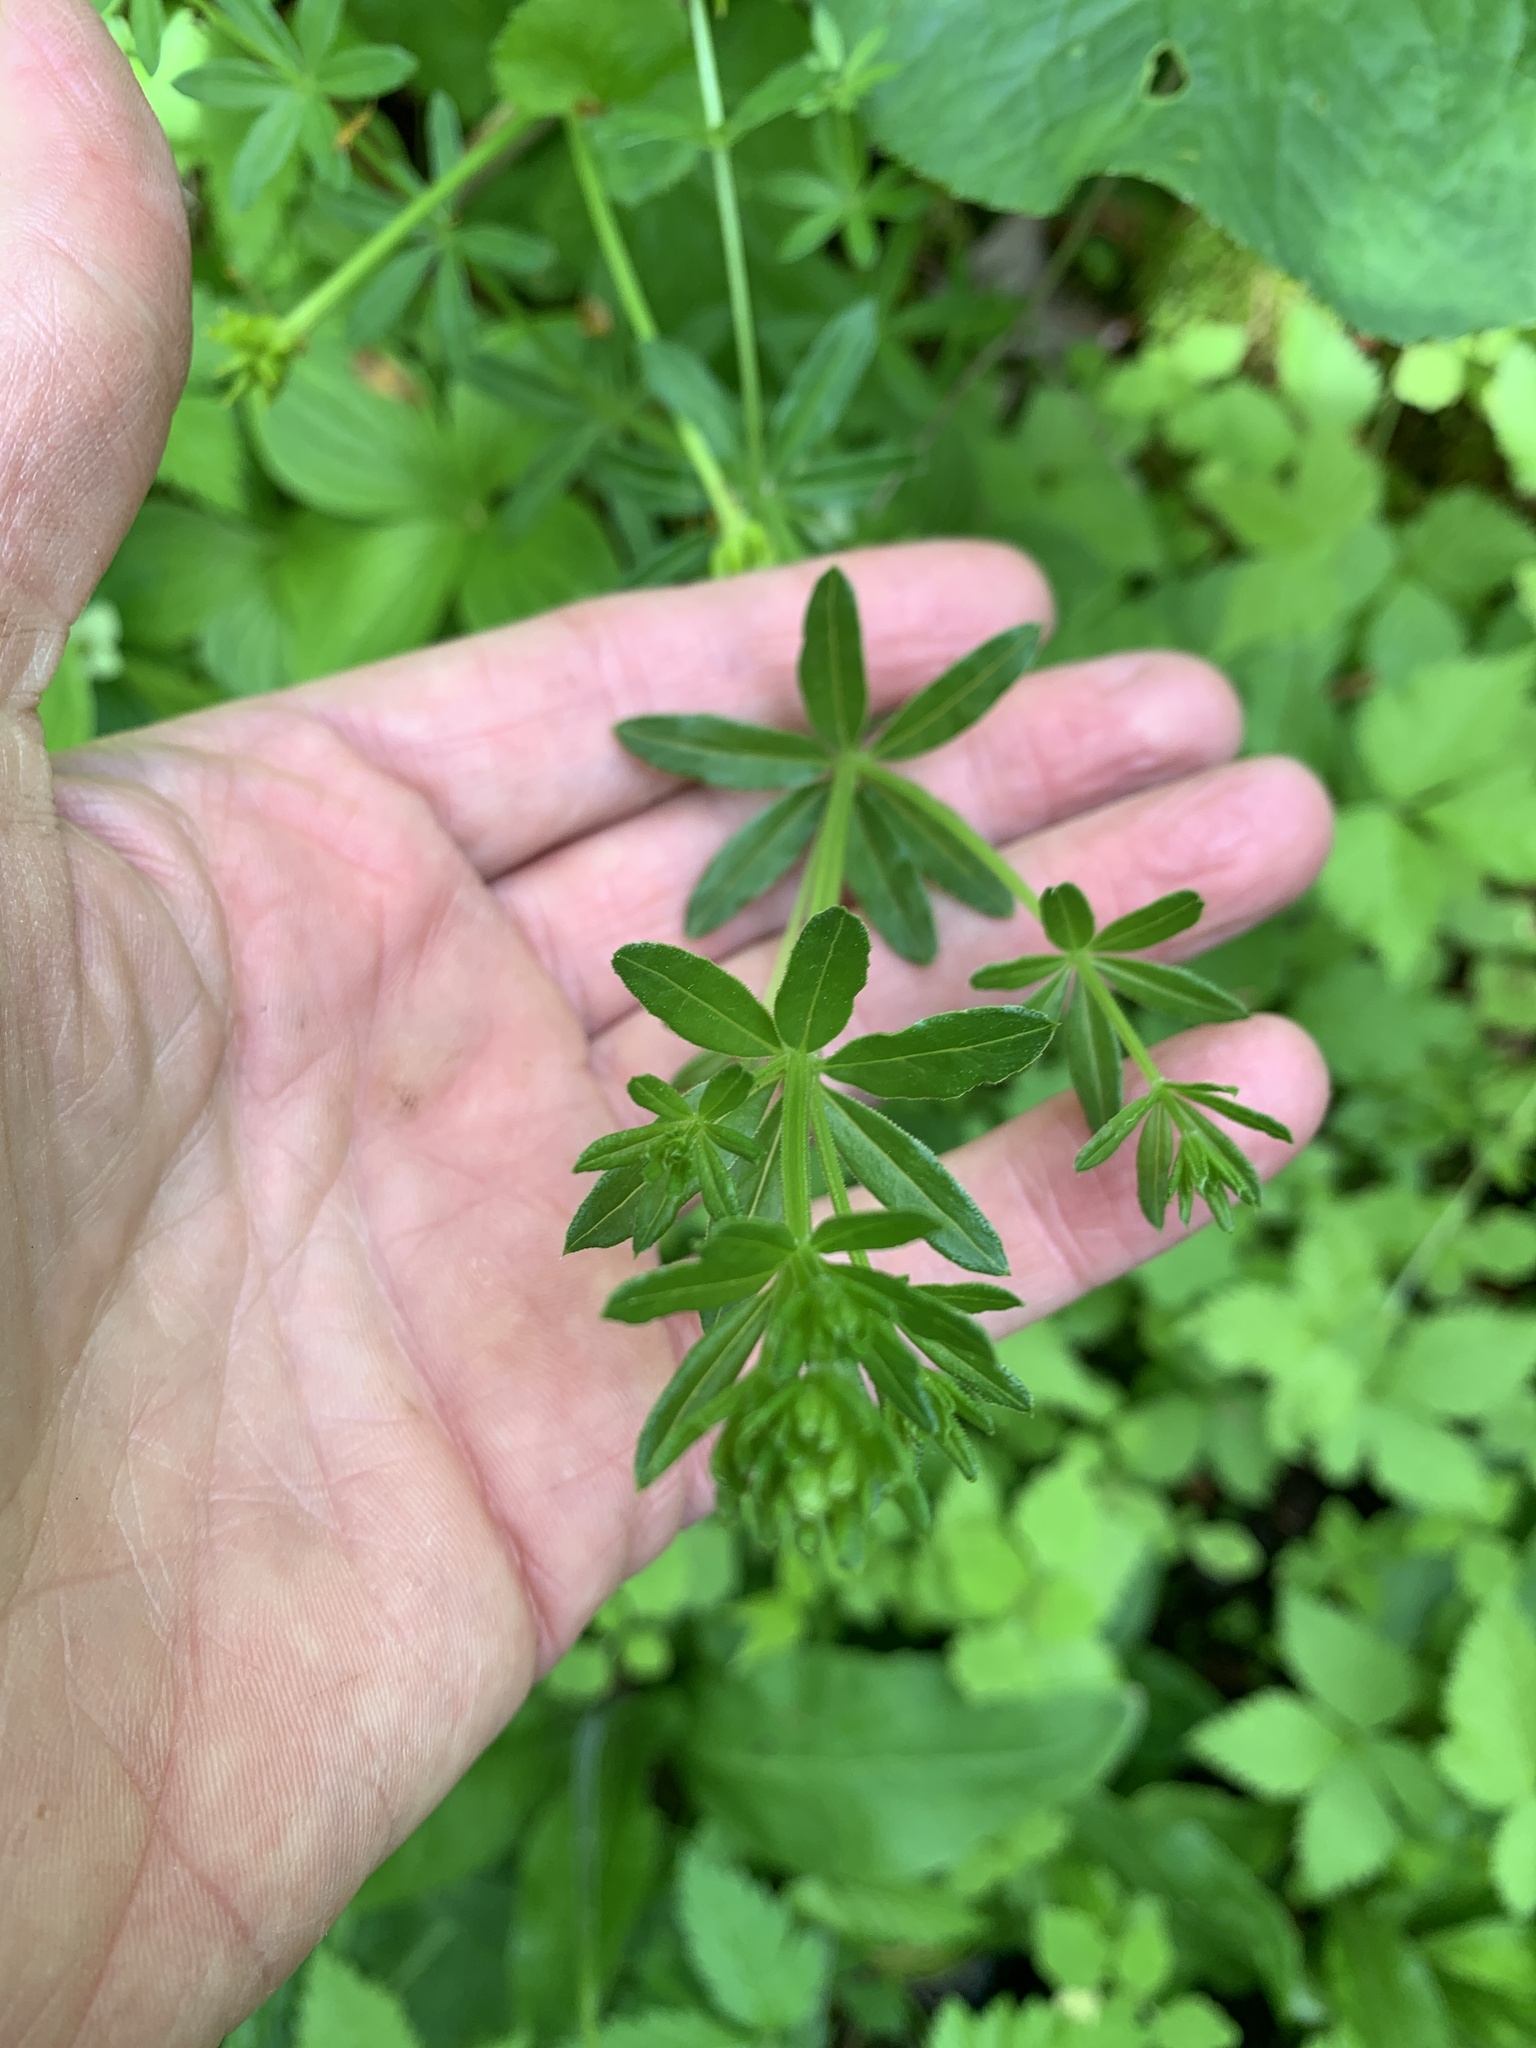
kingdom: Plantae
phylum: Tracheophyta
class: Magnoliopsida
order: Gentianales
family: Rubiaceae
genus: Galium
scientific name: Galium asprellum
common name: Rough bedstraw
